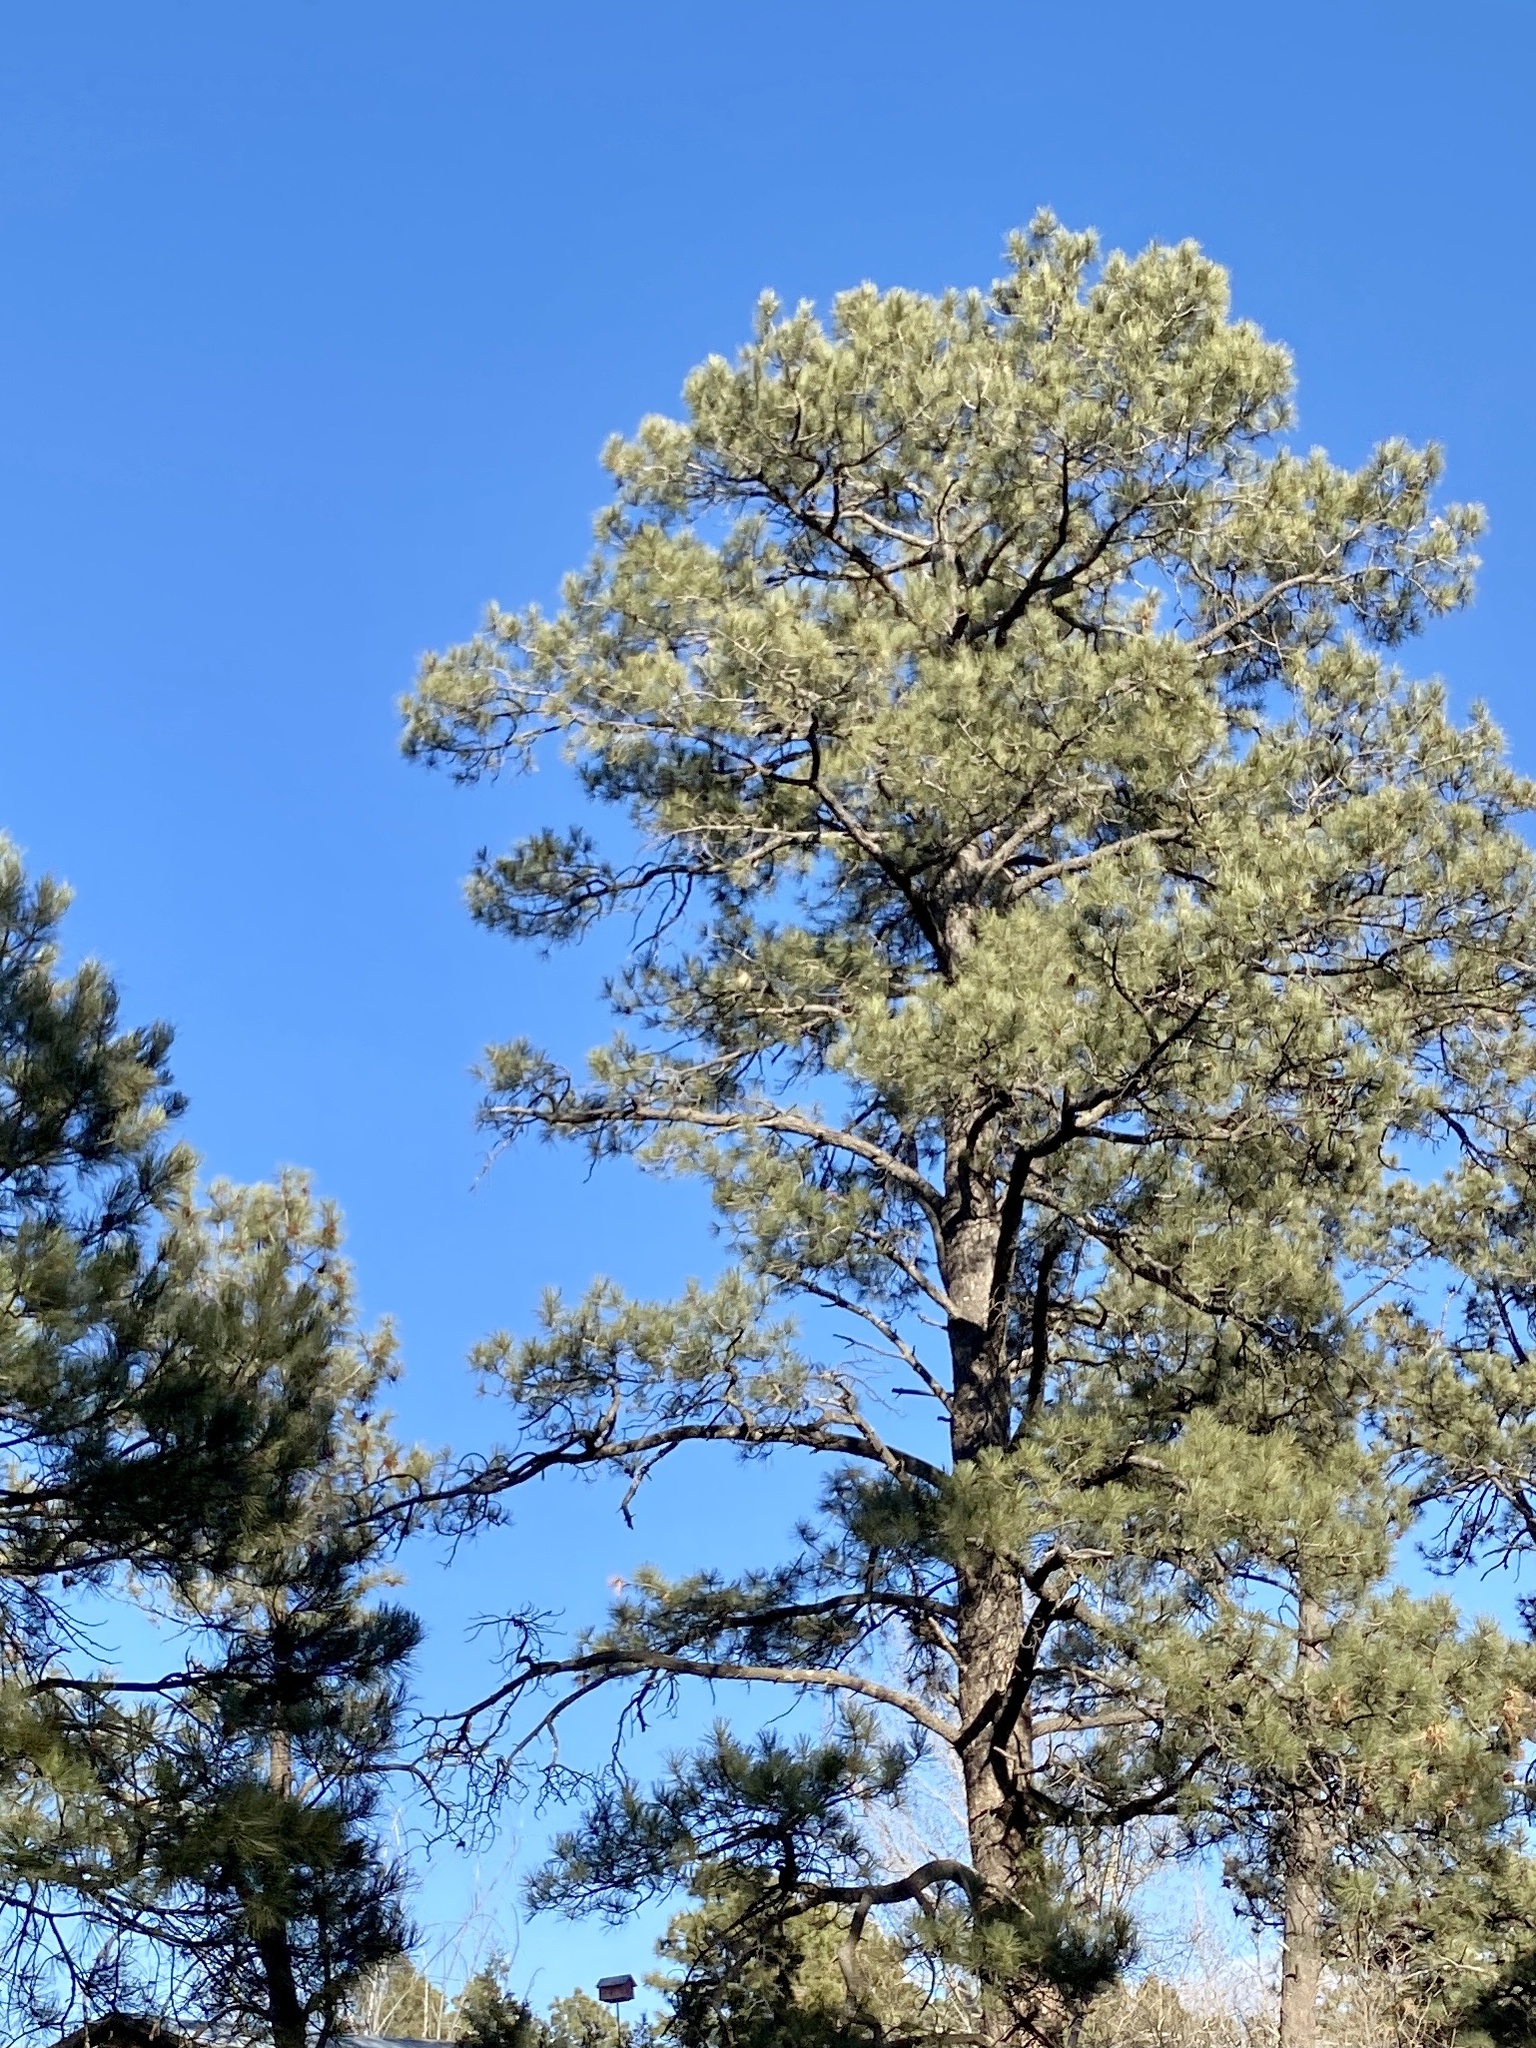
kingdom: Plantae
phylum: Tracheophyta
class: Pinopsida
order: Pinales
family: Pinaceae
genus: Pinus
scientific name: Pinus ponderosa
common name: Western yellow-pine
